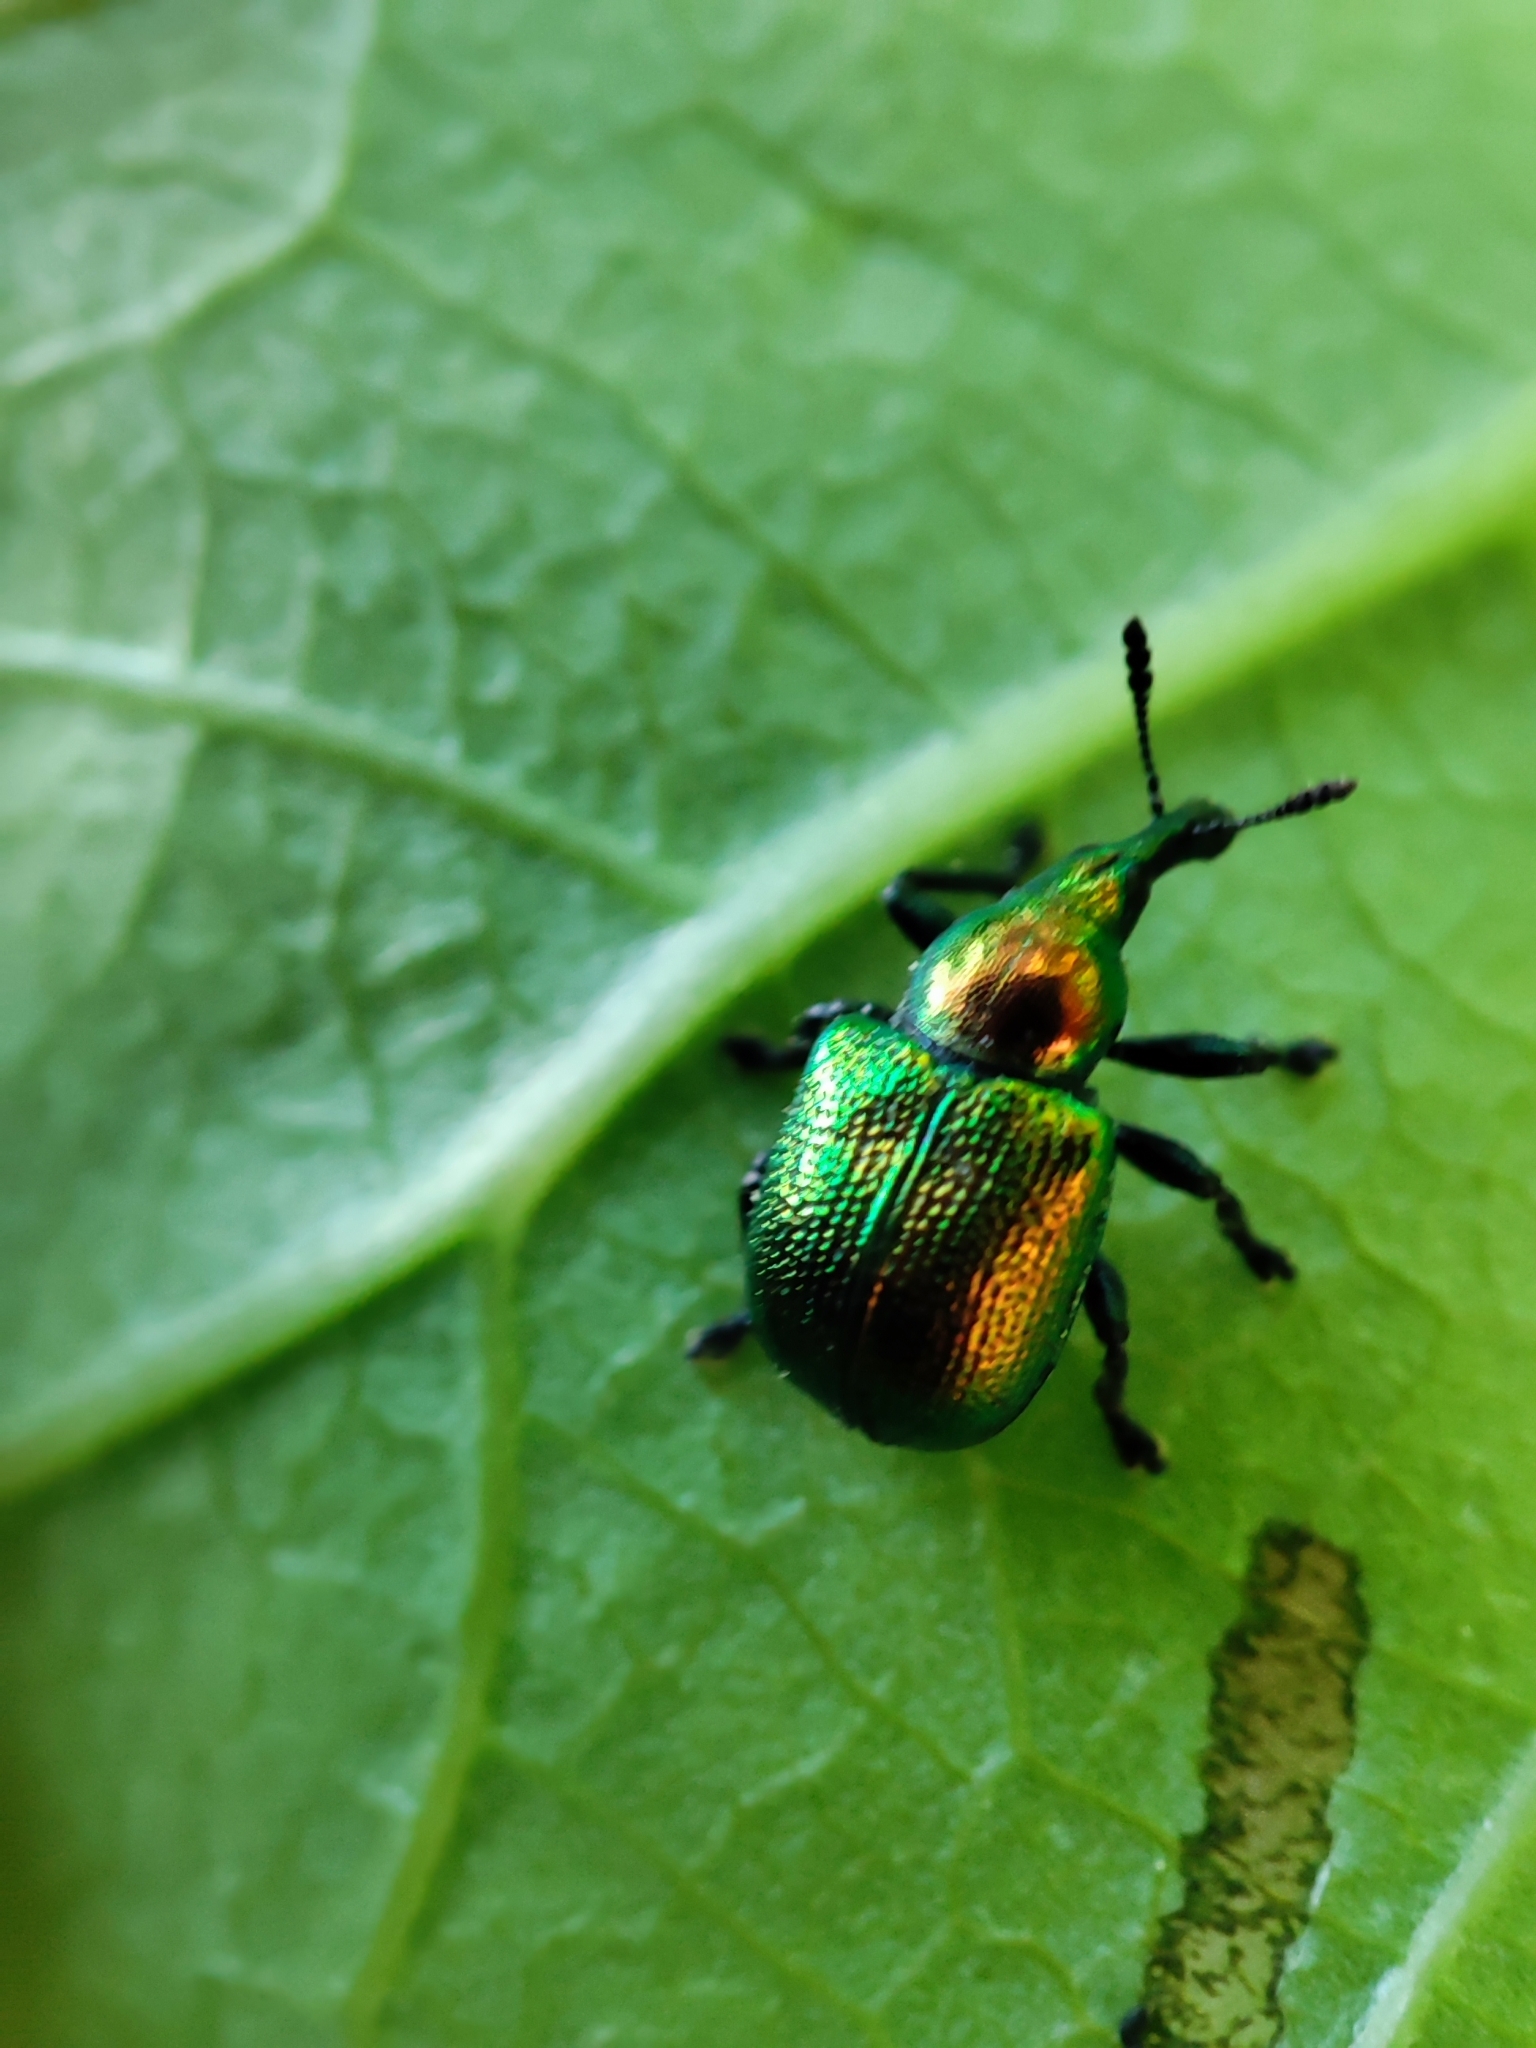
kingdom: Animalia
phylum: Arthropoda
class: Insecta
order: Coleoptera
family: Attelabidae
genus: Byctiscus
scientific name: Byctiscus populi
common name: Leaf-rolling weevil
